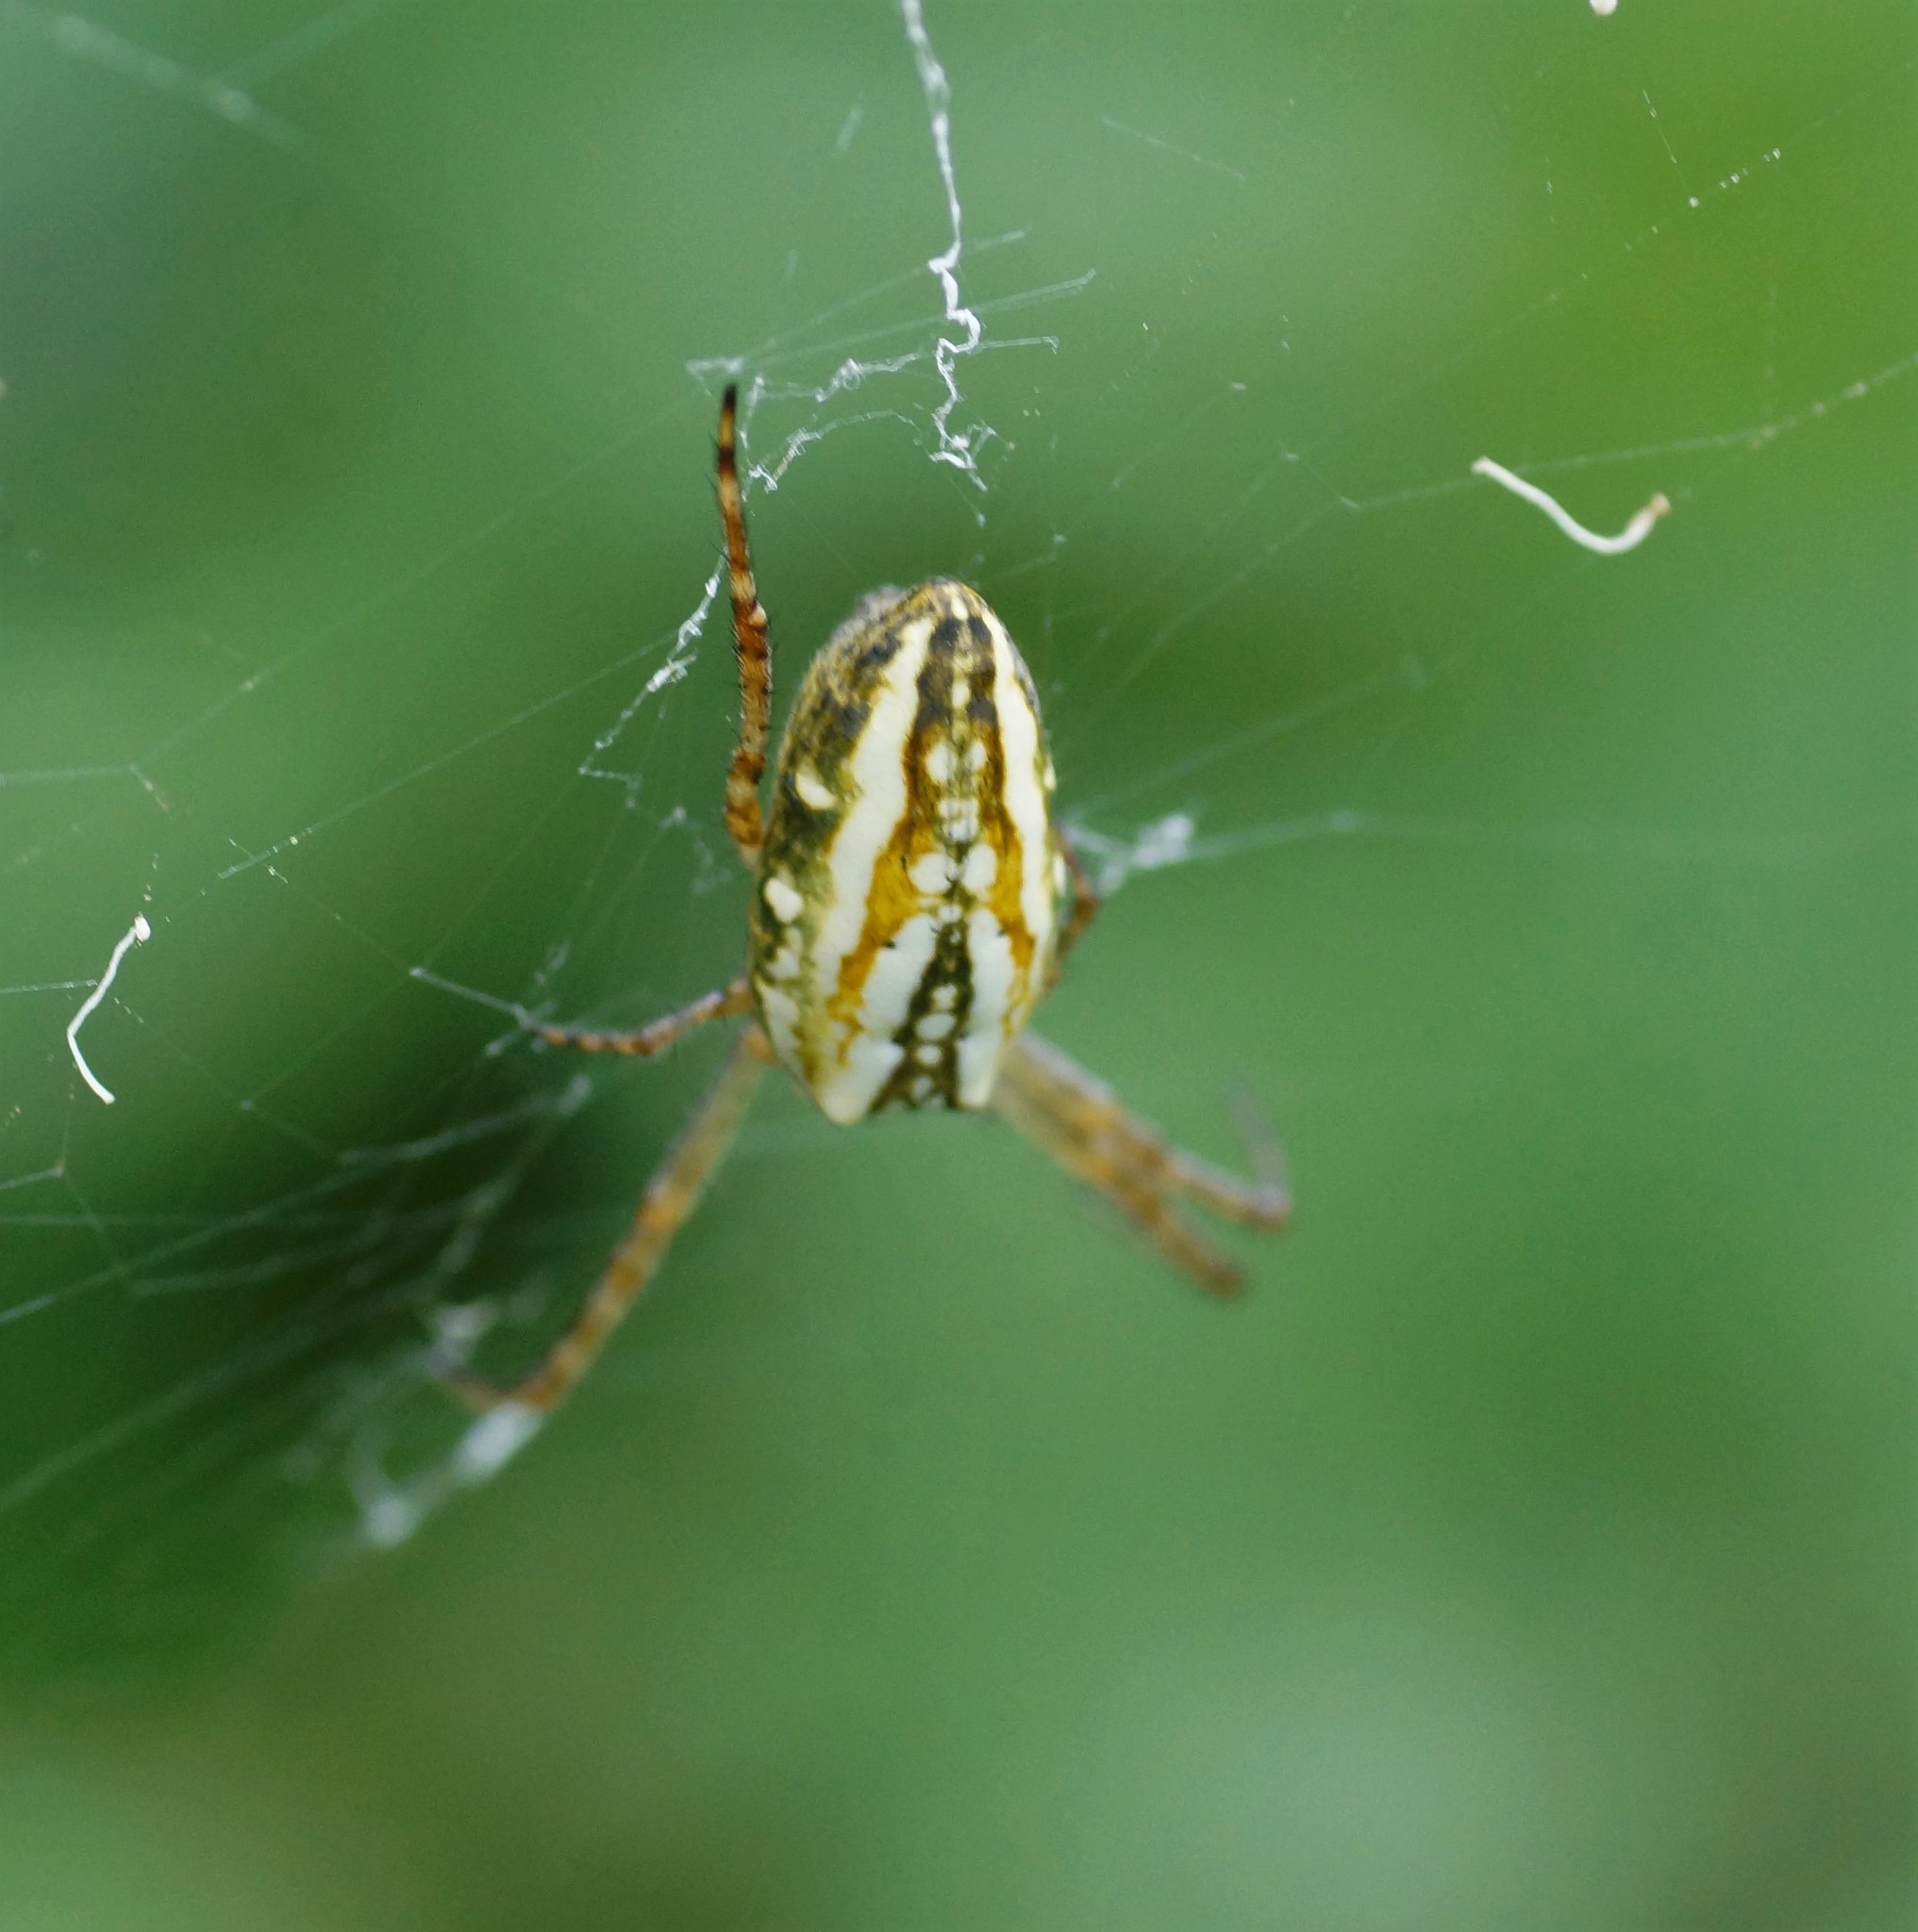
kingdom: Animalia
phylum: Arthropoda
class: Arachnida
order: Araneae
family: Araneidae
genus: Plebs
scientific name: Plebs bradleyi
